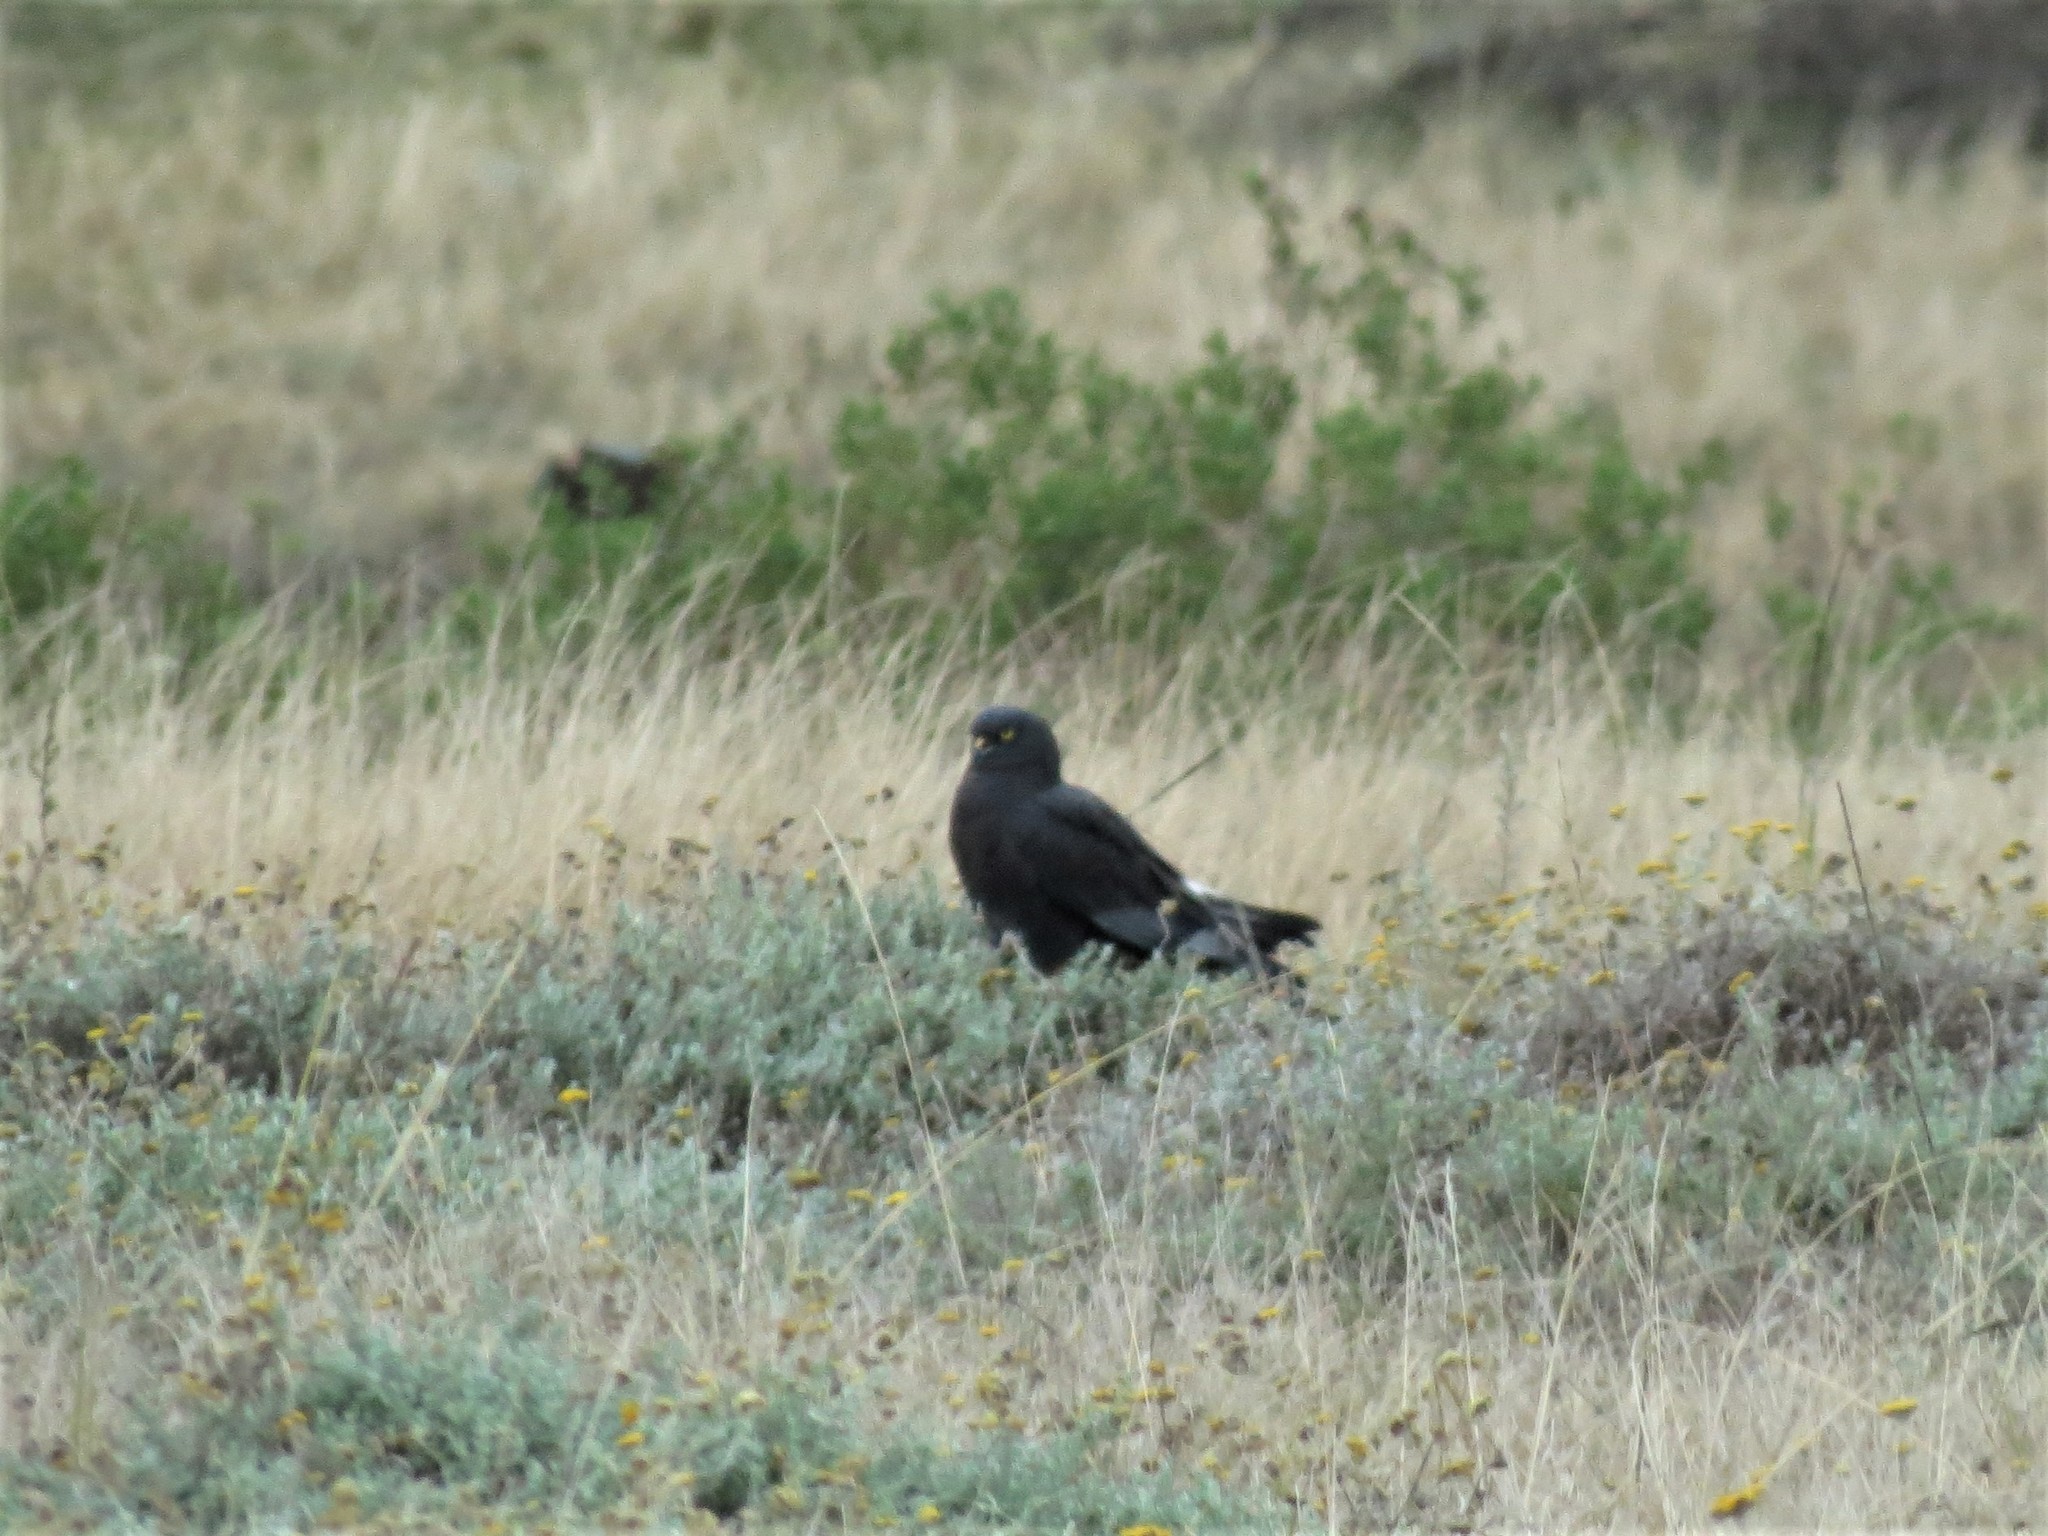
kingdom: Animalia
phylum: Chordata
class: Aves
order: Accipitriformes
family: Accipitridae
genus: Circus
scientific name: Circus maurus
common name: Black harrier
